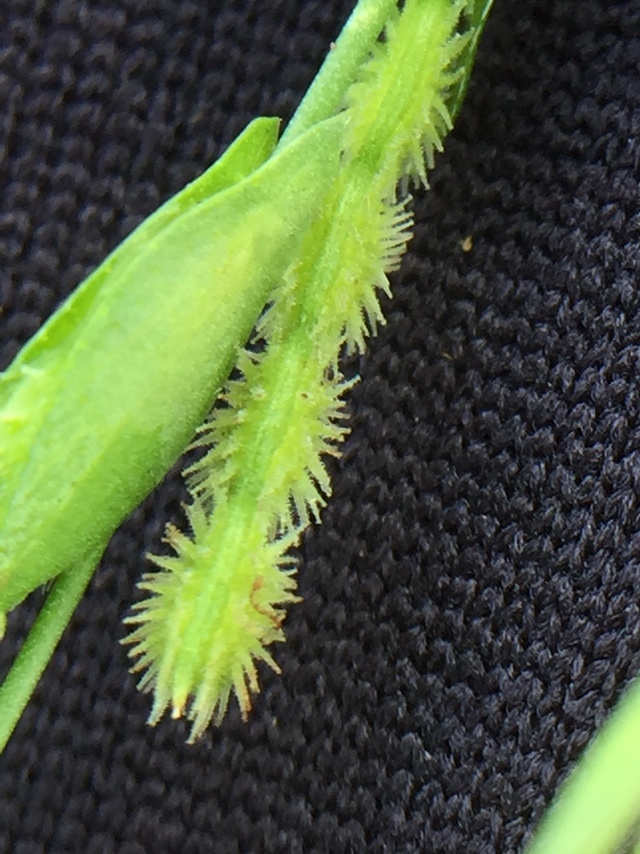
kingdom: Plantae
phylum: Tracheophyta
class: Magnoliopsida
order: Fabales
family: Fabaceae
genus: Zornia
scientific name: Zornia gibbosa
